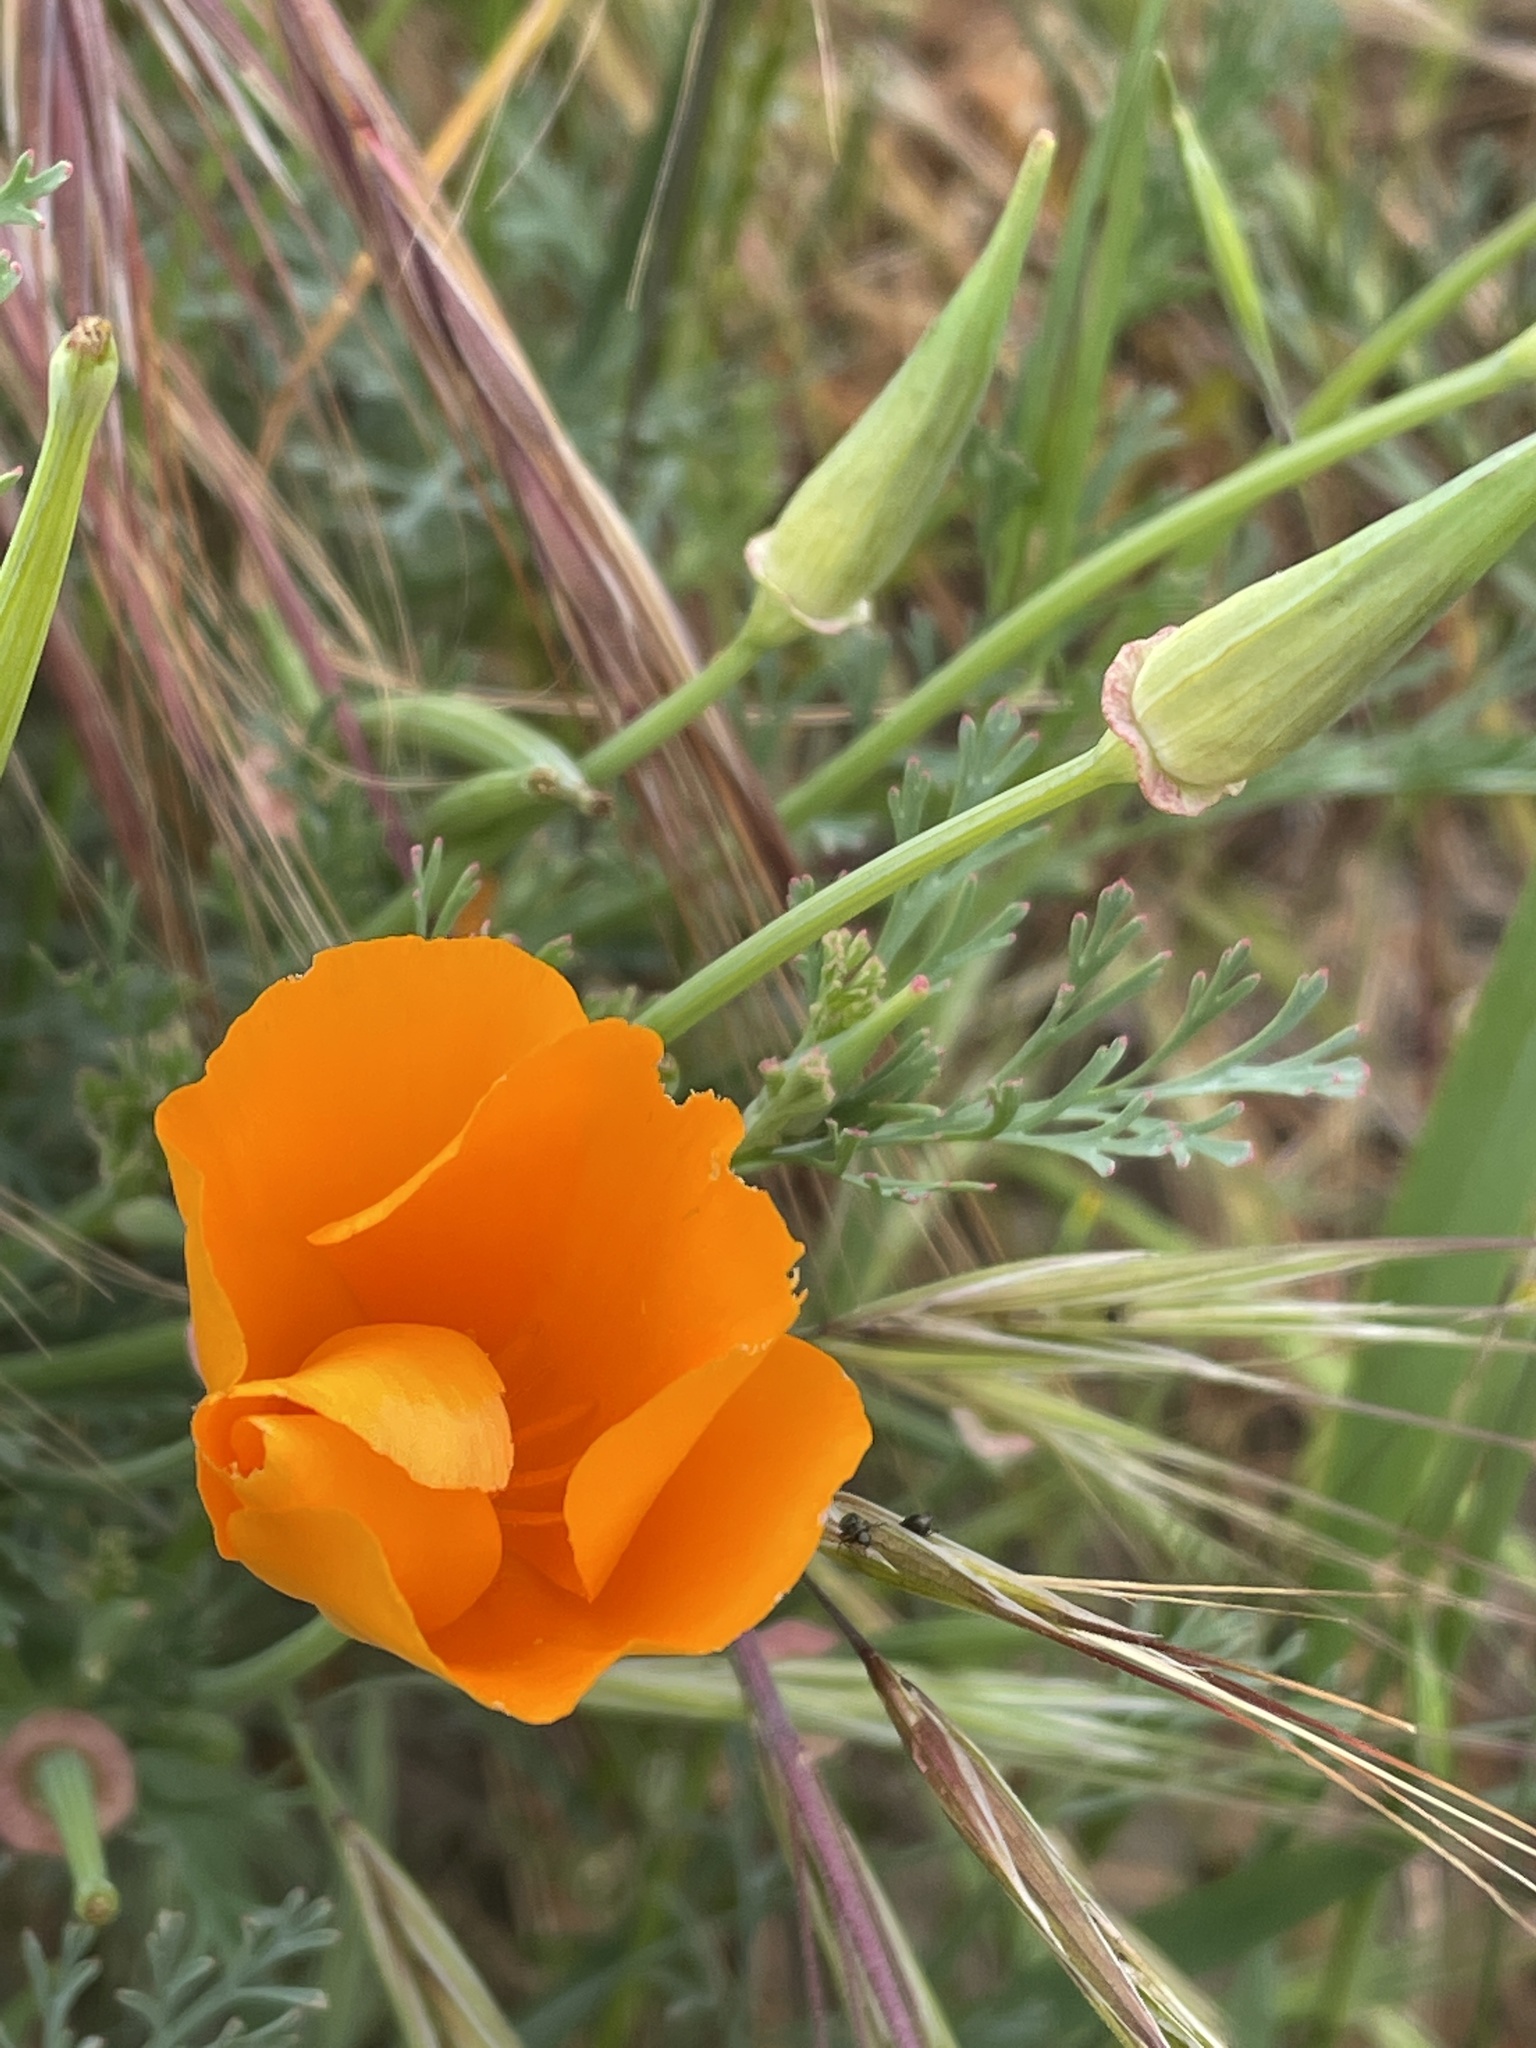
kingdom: Plantae
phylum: Tracheophyta
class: Magnoliopsida
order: Ranunculales
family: Papaveraceae
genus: Eschscholzia
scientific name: Eschscholzia californica
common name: California poppy
